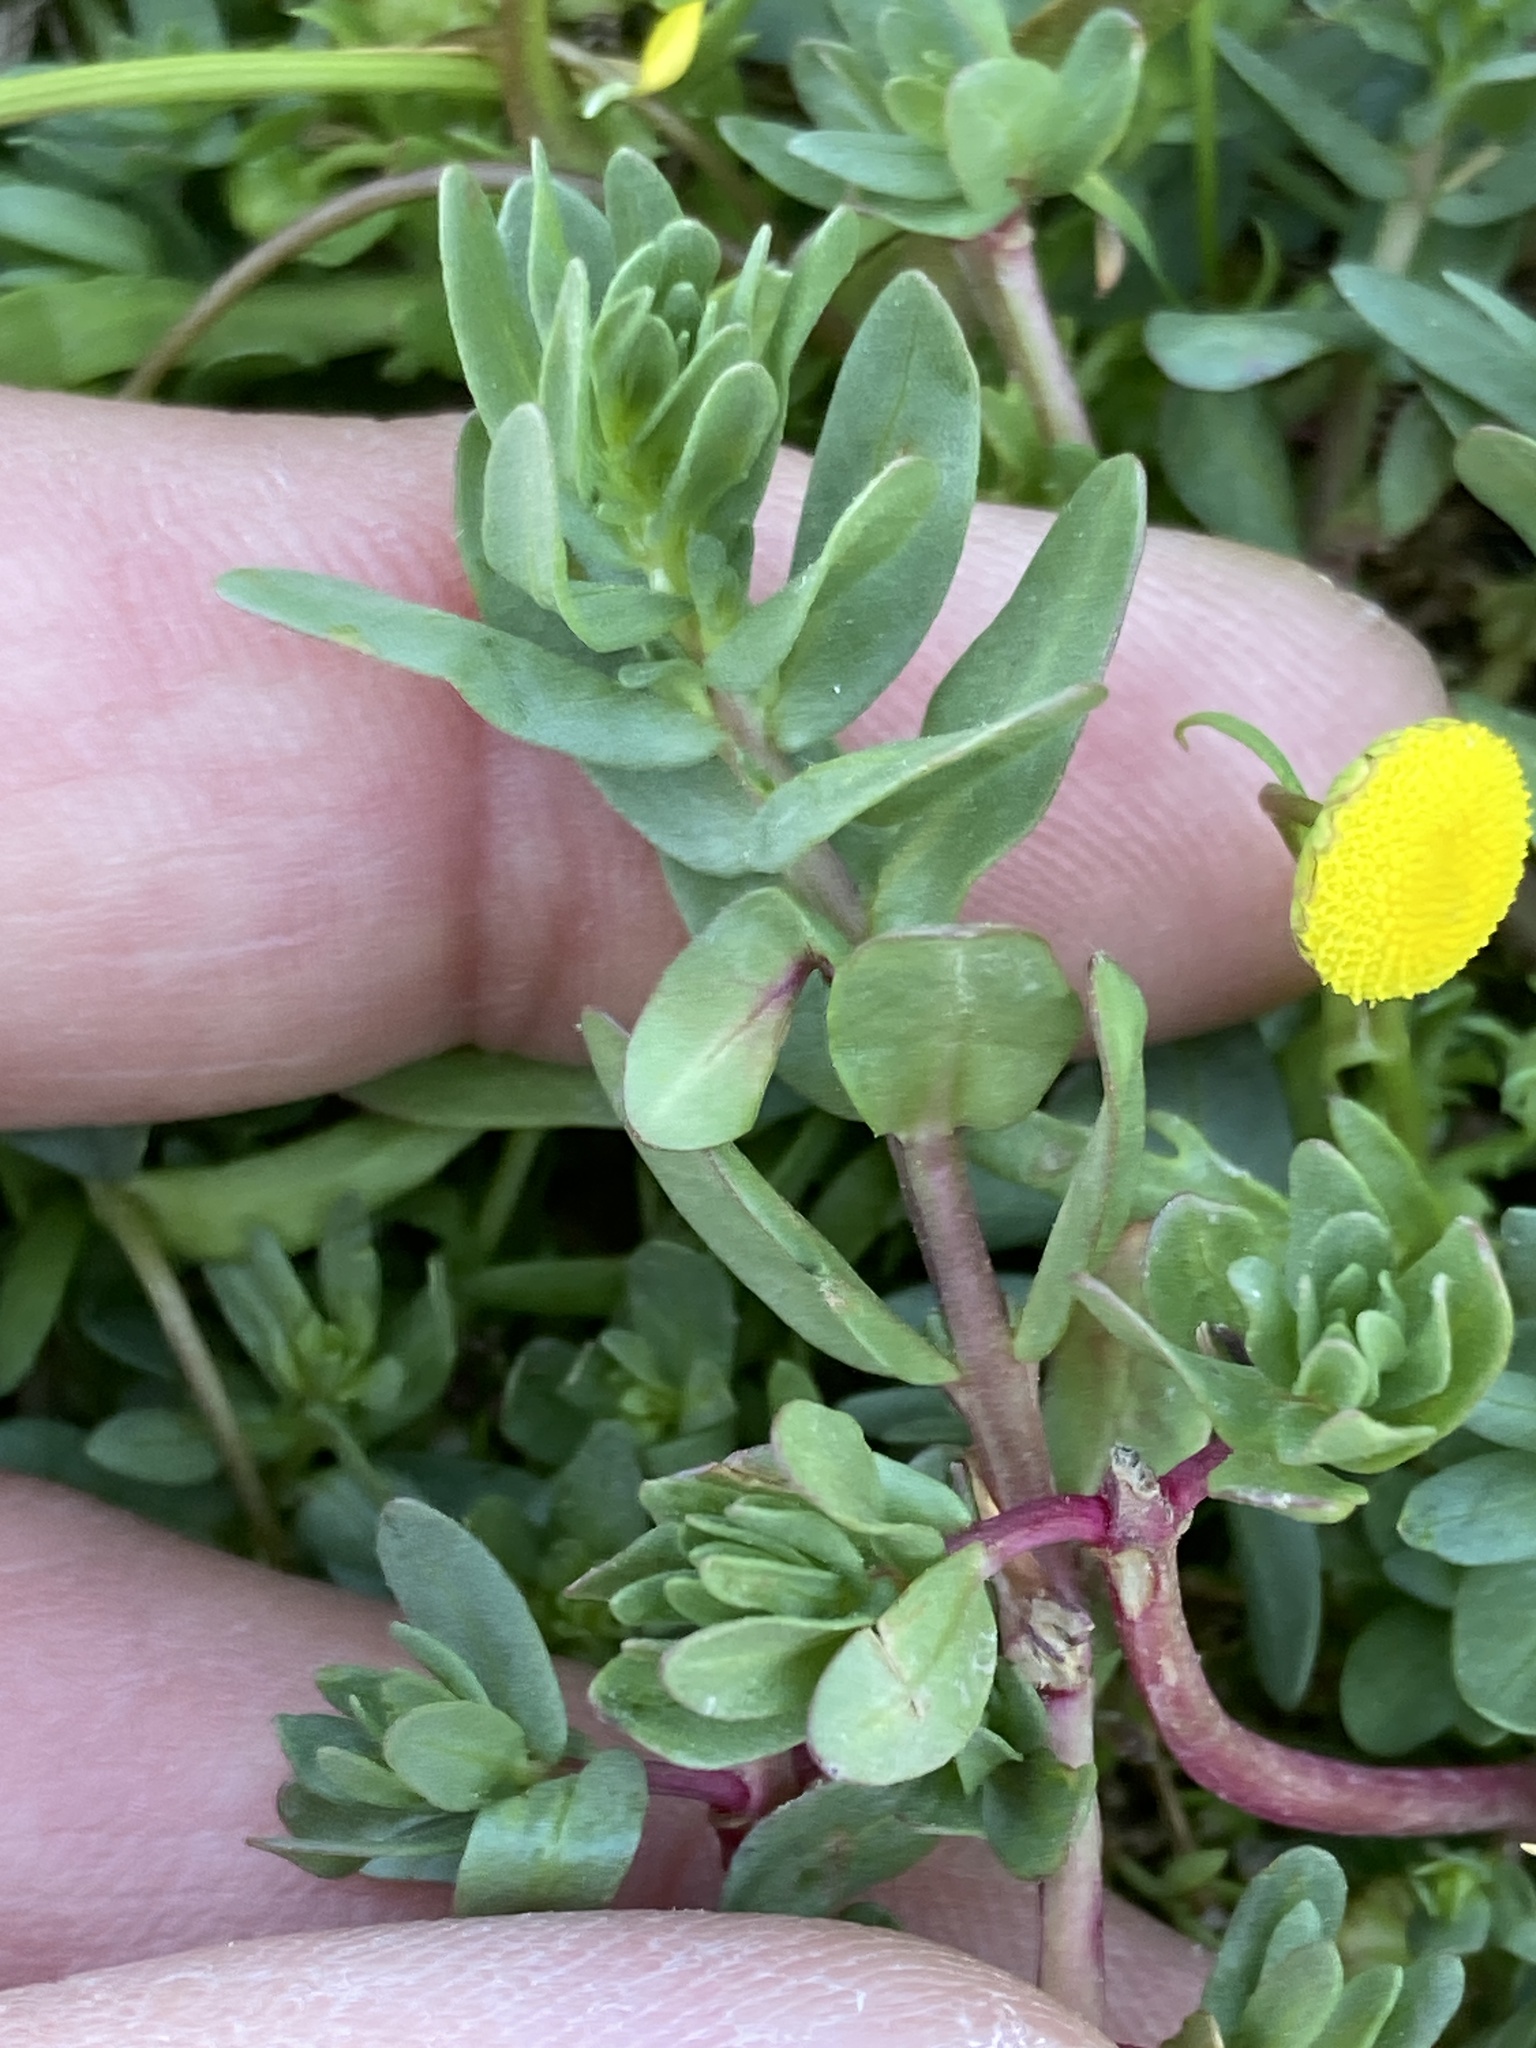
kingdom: Plantae
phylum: Tracheophyta
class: Magnoliopsida
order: Myrtales
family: Lythraceae
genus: Lythrum
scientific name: Lythrum hyssopifolia
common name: Grass-poly
